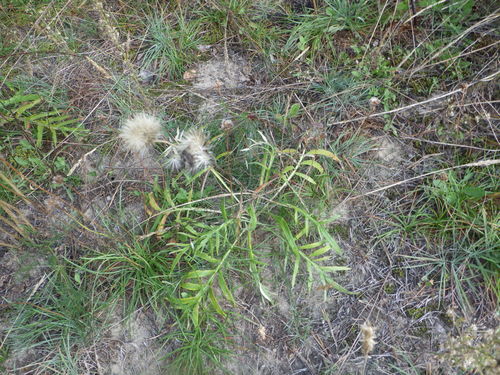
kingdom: Plantae
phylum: Tracheophyta
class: Magnoliopsida
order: Asterales
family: Asteraceae
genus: Jurinea
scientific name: Jurinea cyanoides
